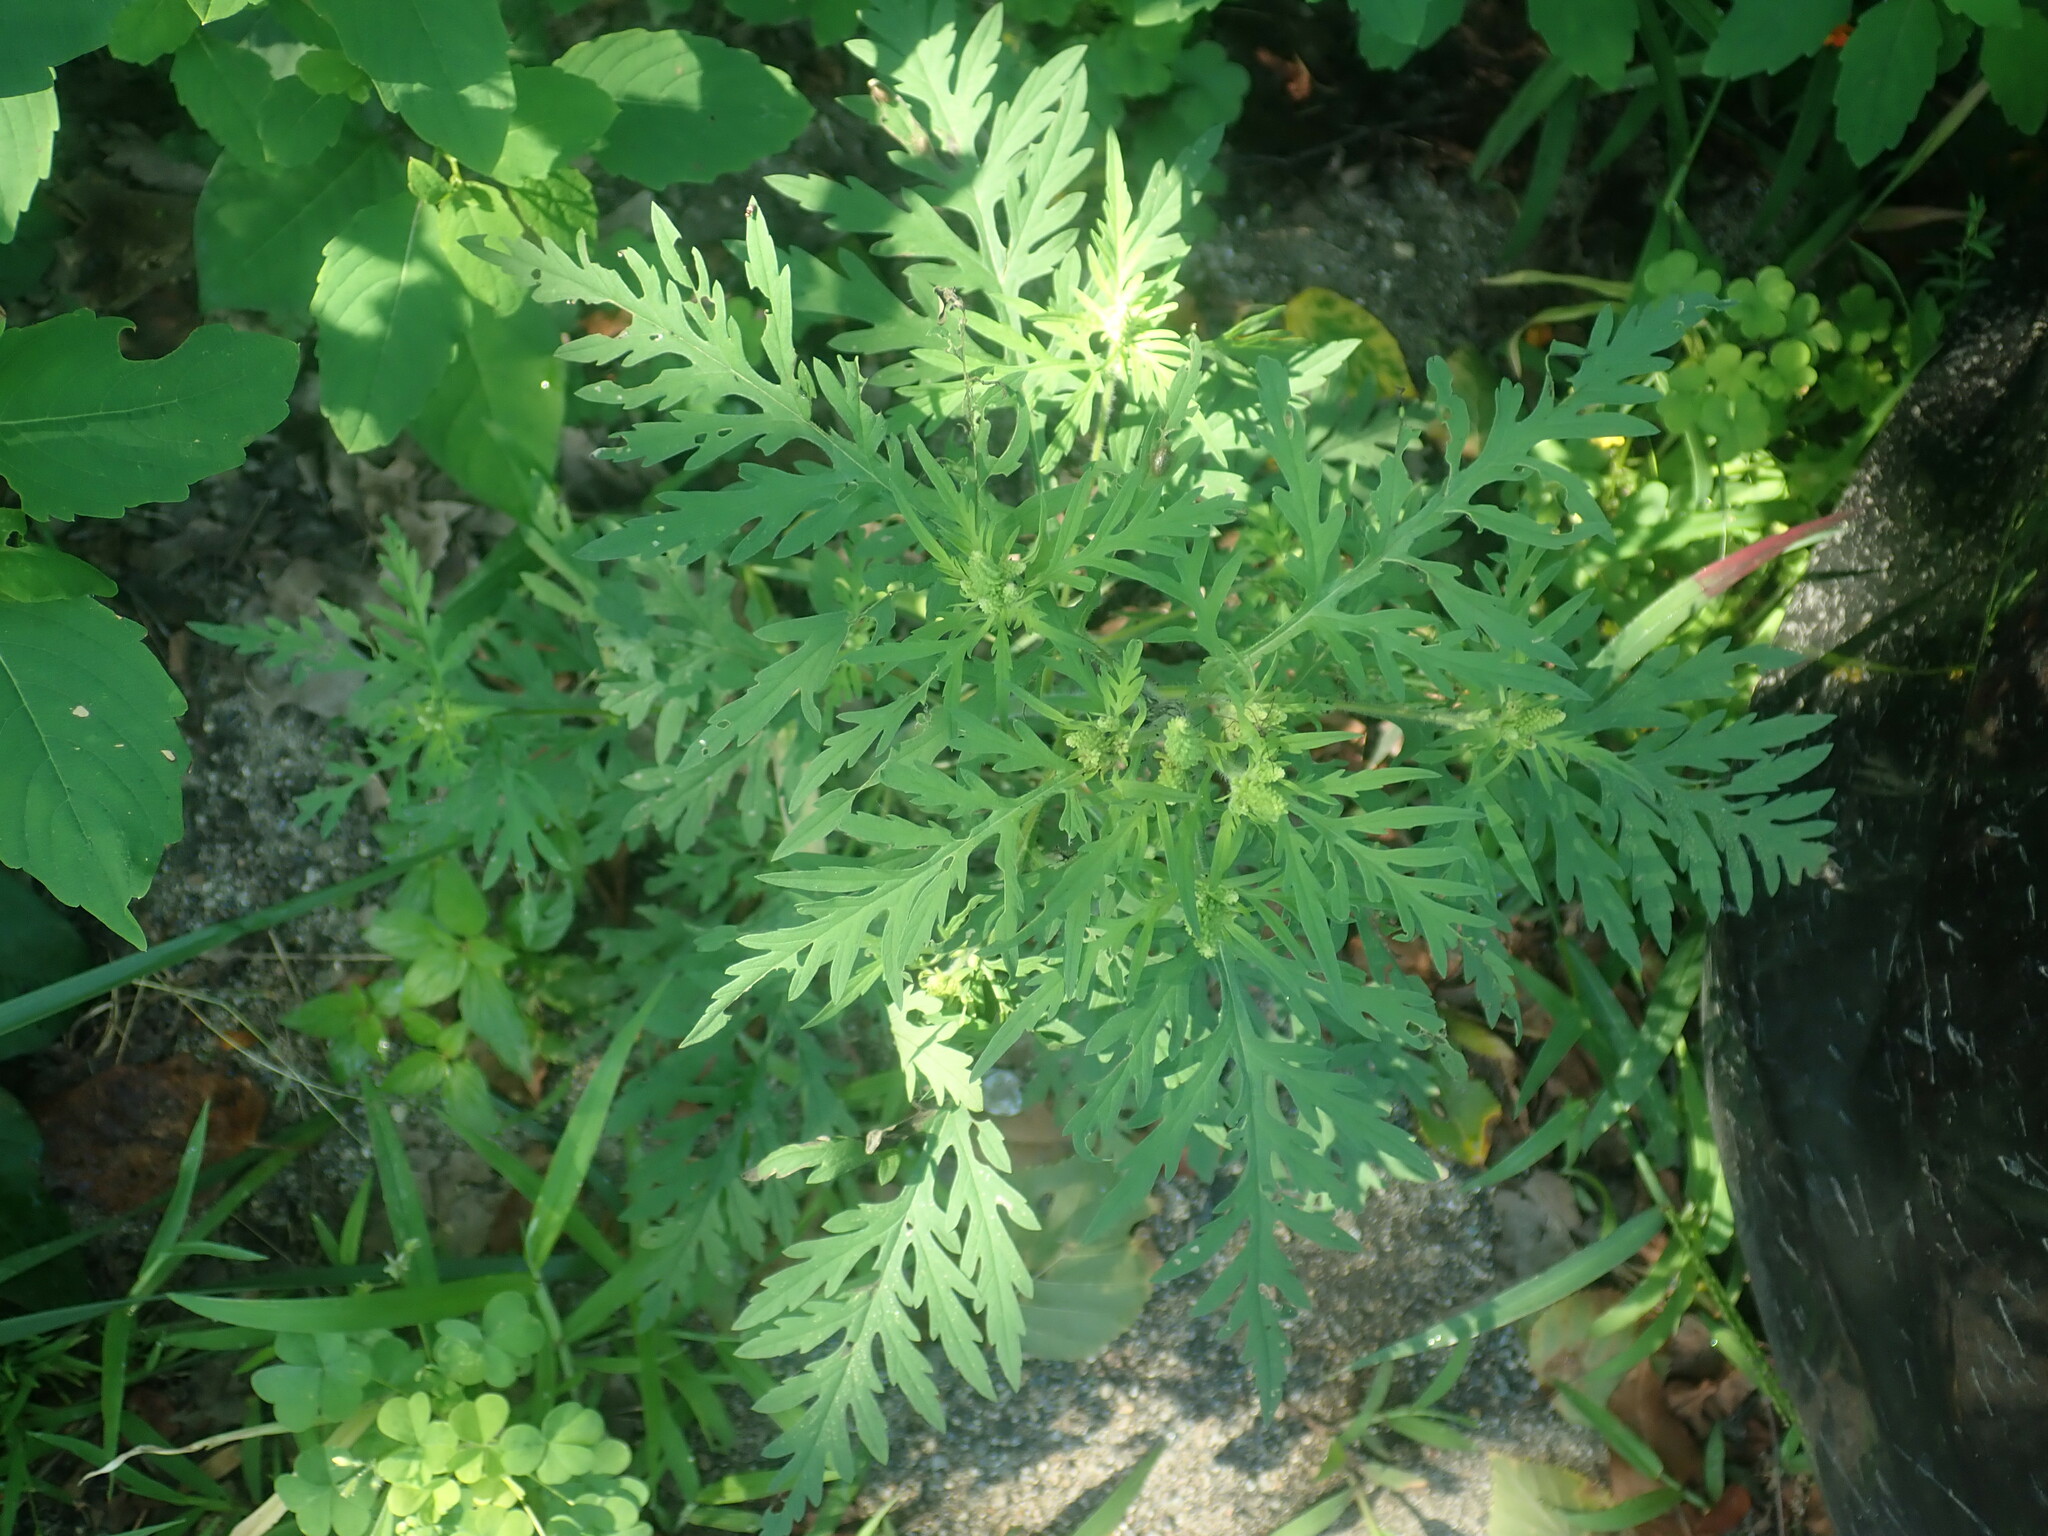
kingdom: Plantae
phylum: Tracheophyta
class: Magnoliopsida
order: Asterales
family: Asteraceae
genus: Ambrosia
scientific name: Ambrosia artemisiifolia
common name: Annual ragweed
